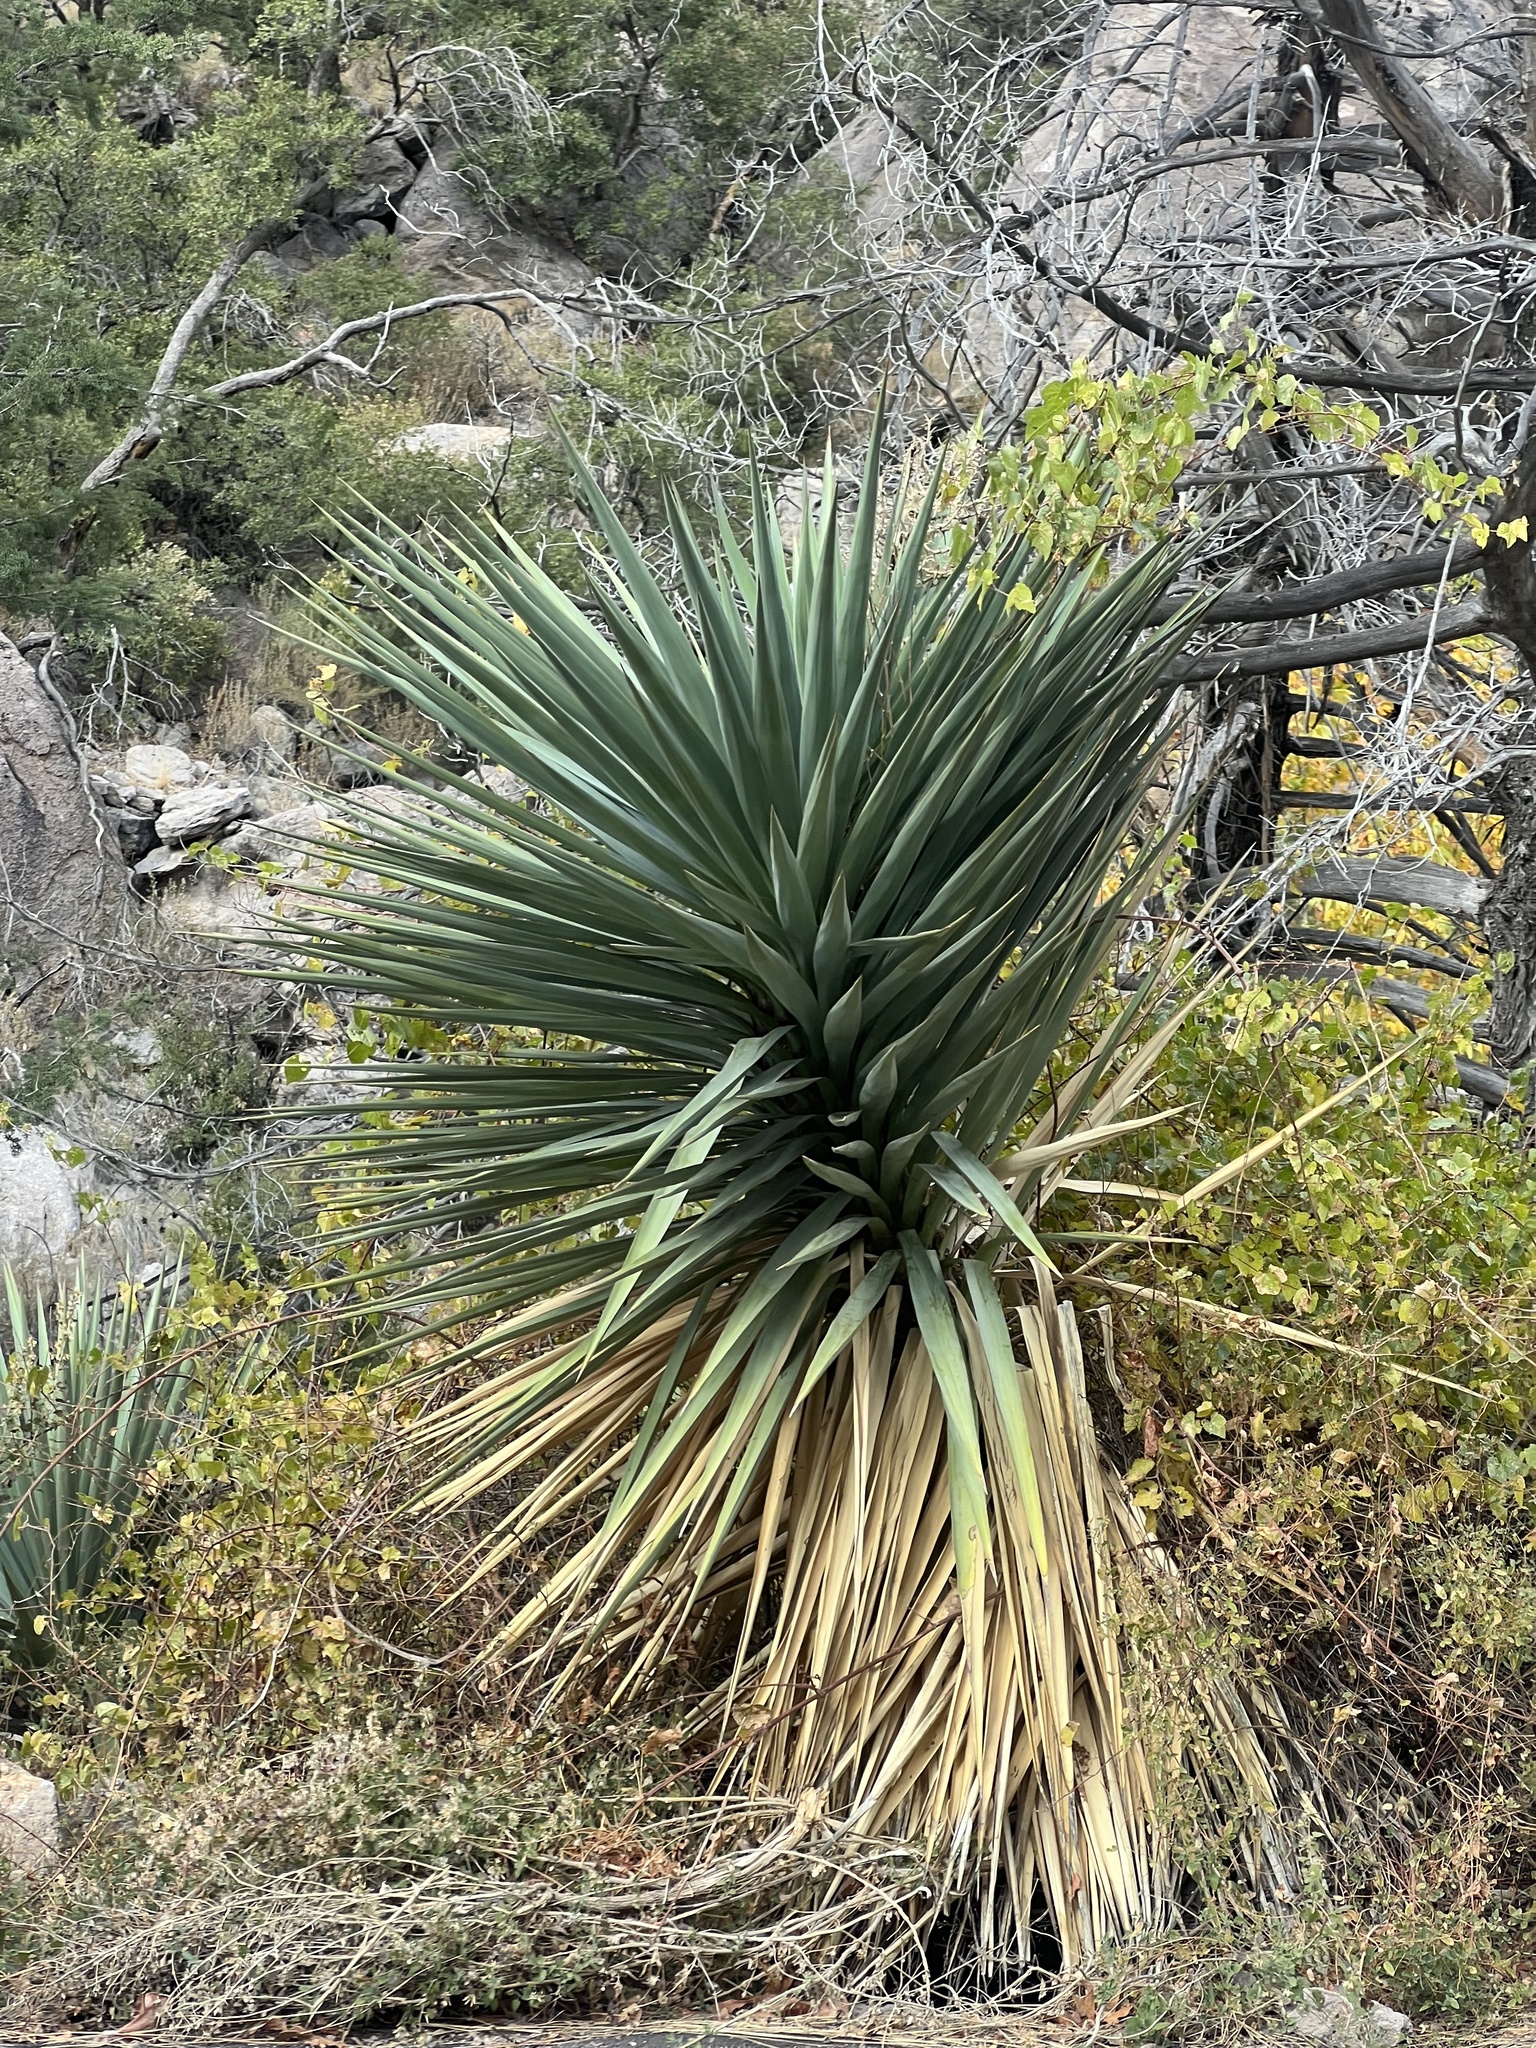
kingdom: Plantae
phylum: Tracheophyta
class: Liliopsida
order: Asparagales
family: Asparagaceae
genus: Yucca
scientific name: Yucca schottii
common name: Hoary yucca
